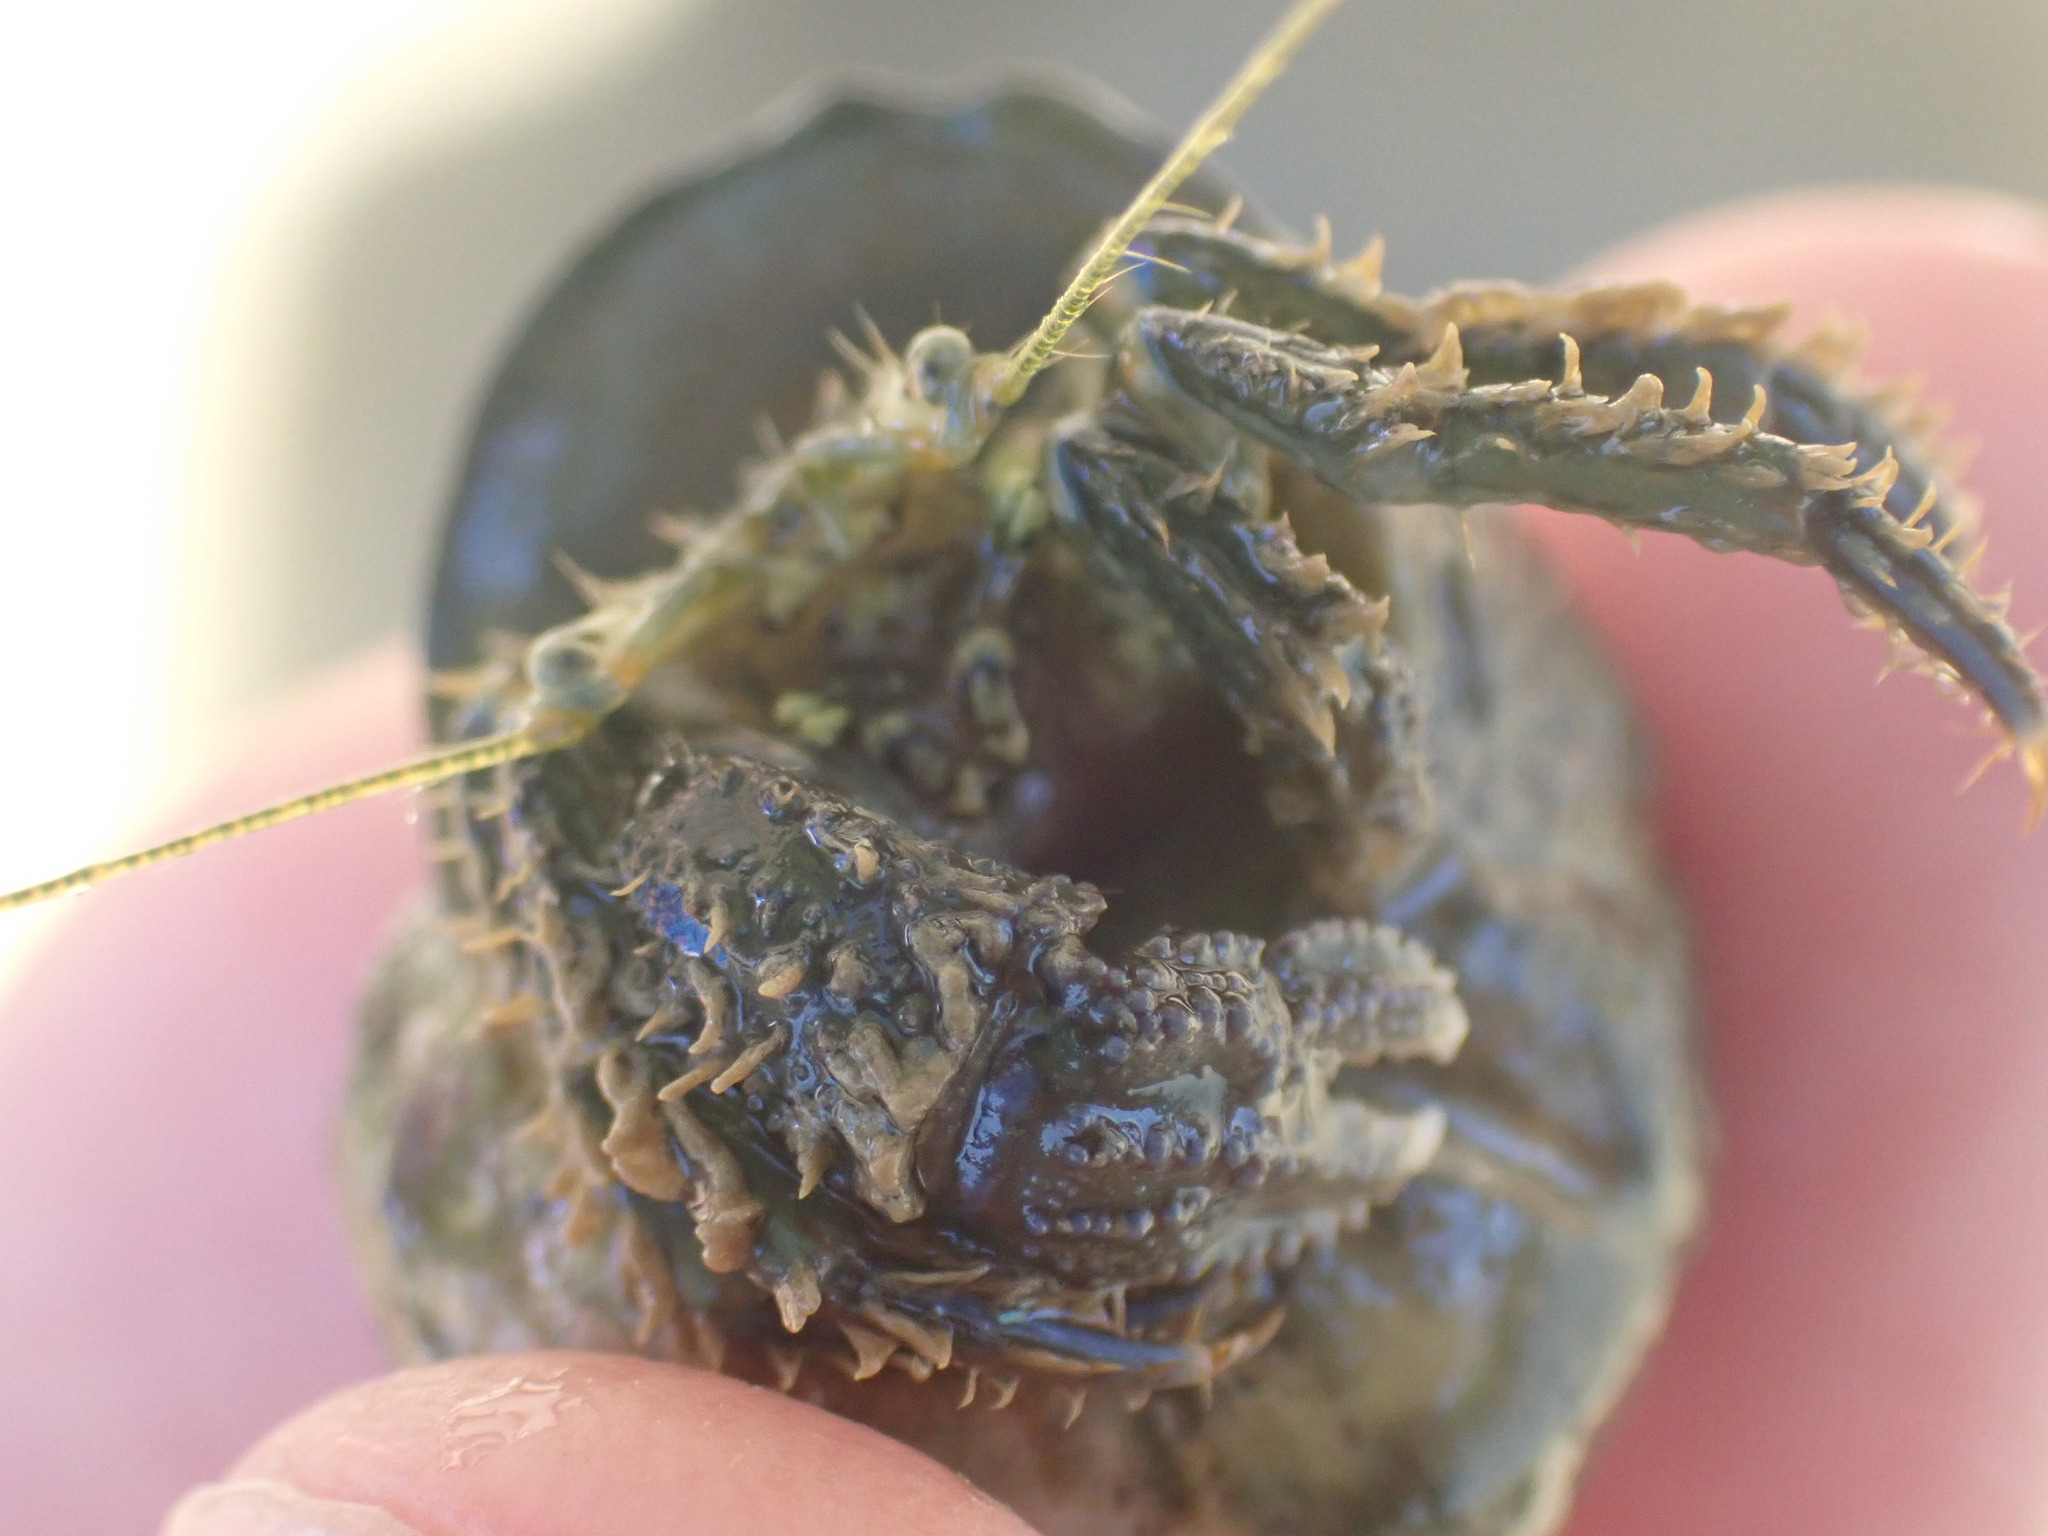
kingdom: Animalia
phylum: Arthropoda
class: Malacostraca
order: Decapoda
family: Paguridae
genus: Pagurus
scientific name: Pagurus novizealandiae
